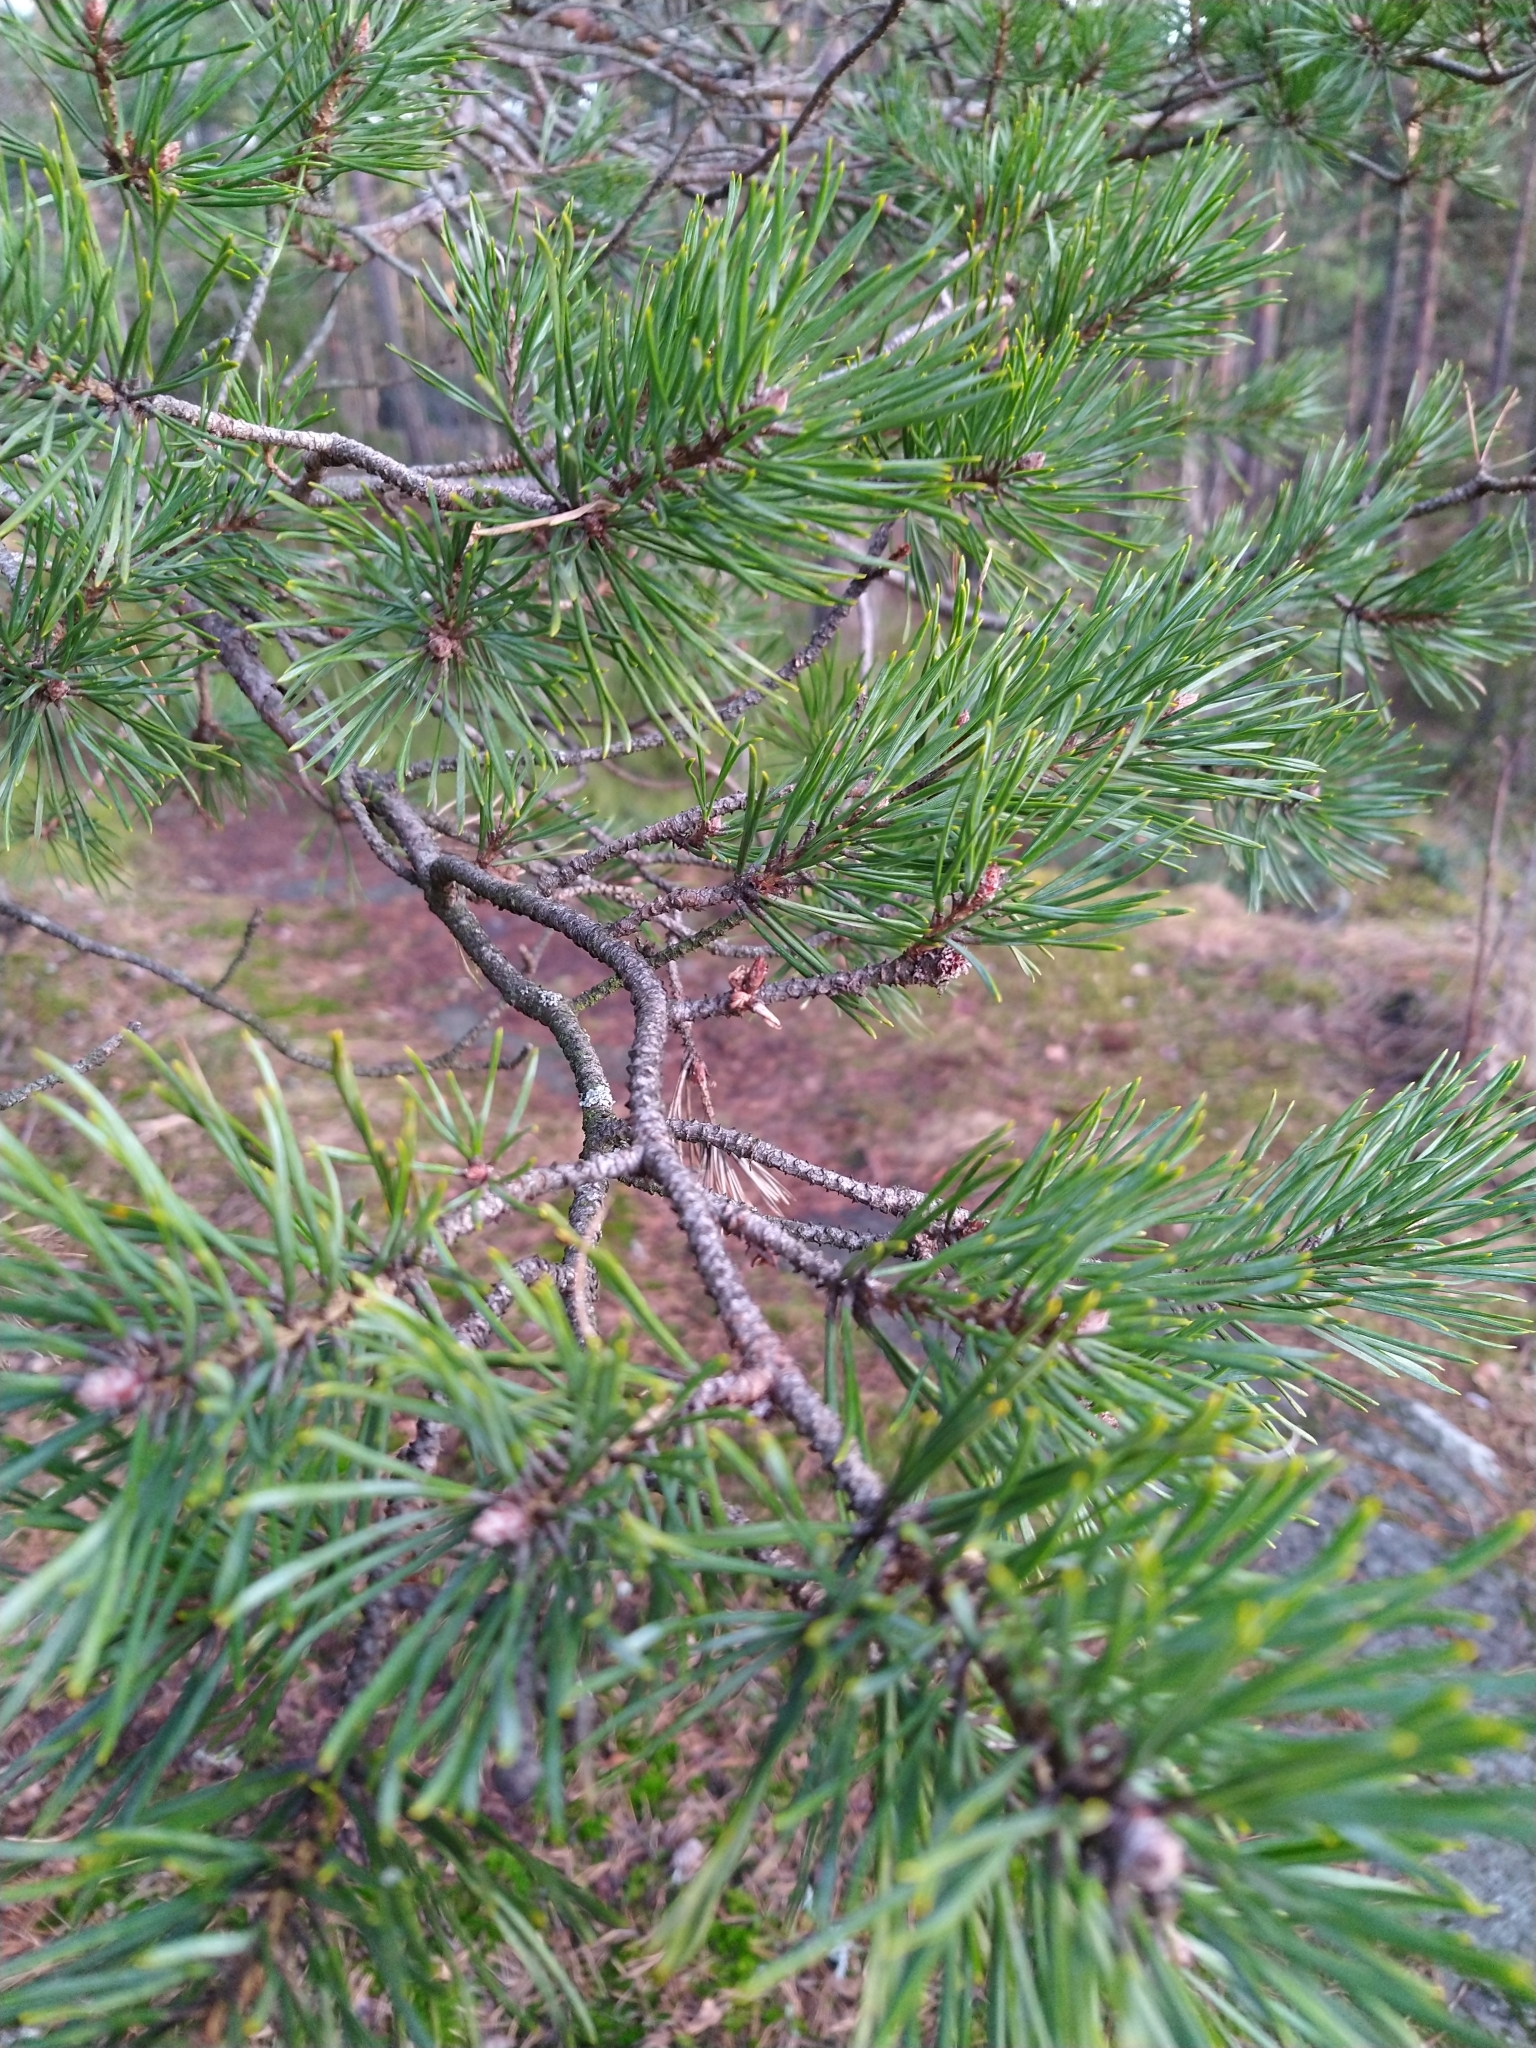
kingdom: Plantae
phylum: Tracheophyta
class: Pinopsida
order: Pinales
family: Pinaceae
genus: Pinus
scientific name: Pinus sylvestris
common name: Scots pine
